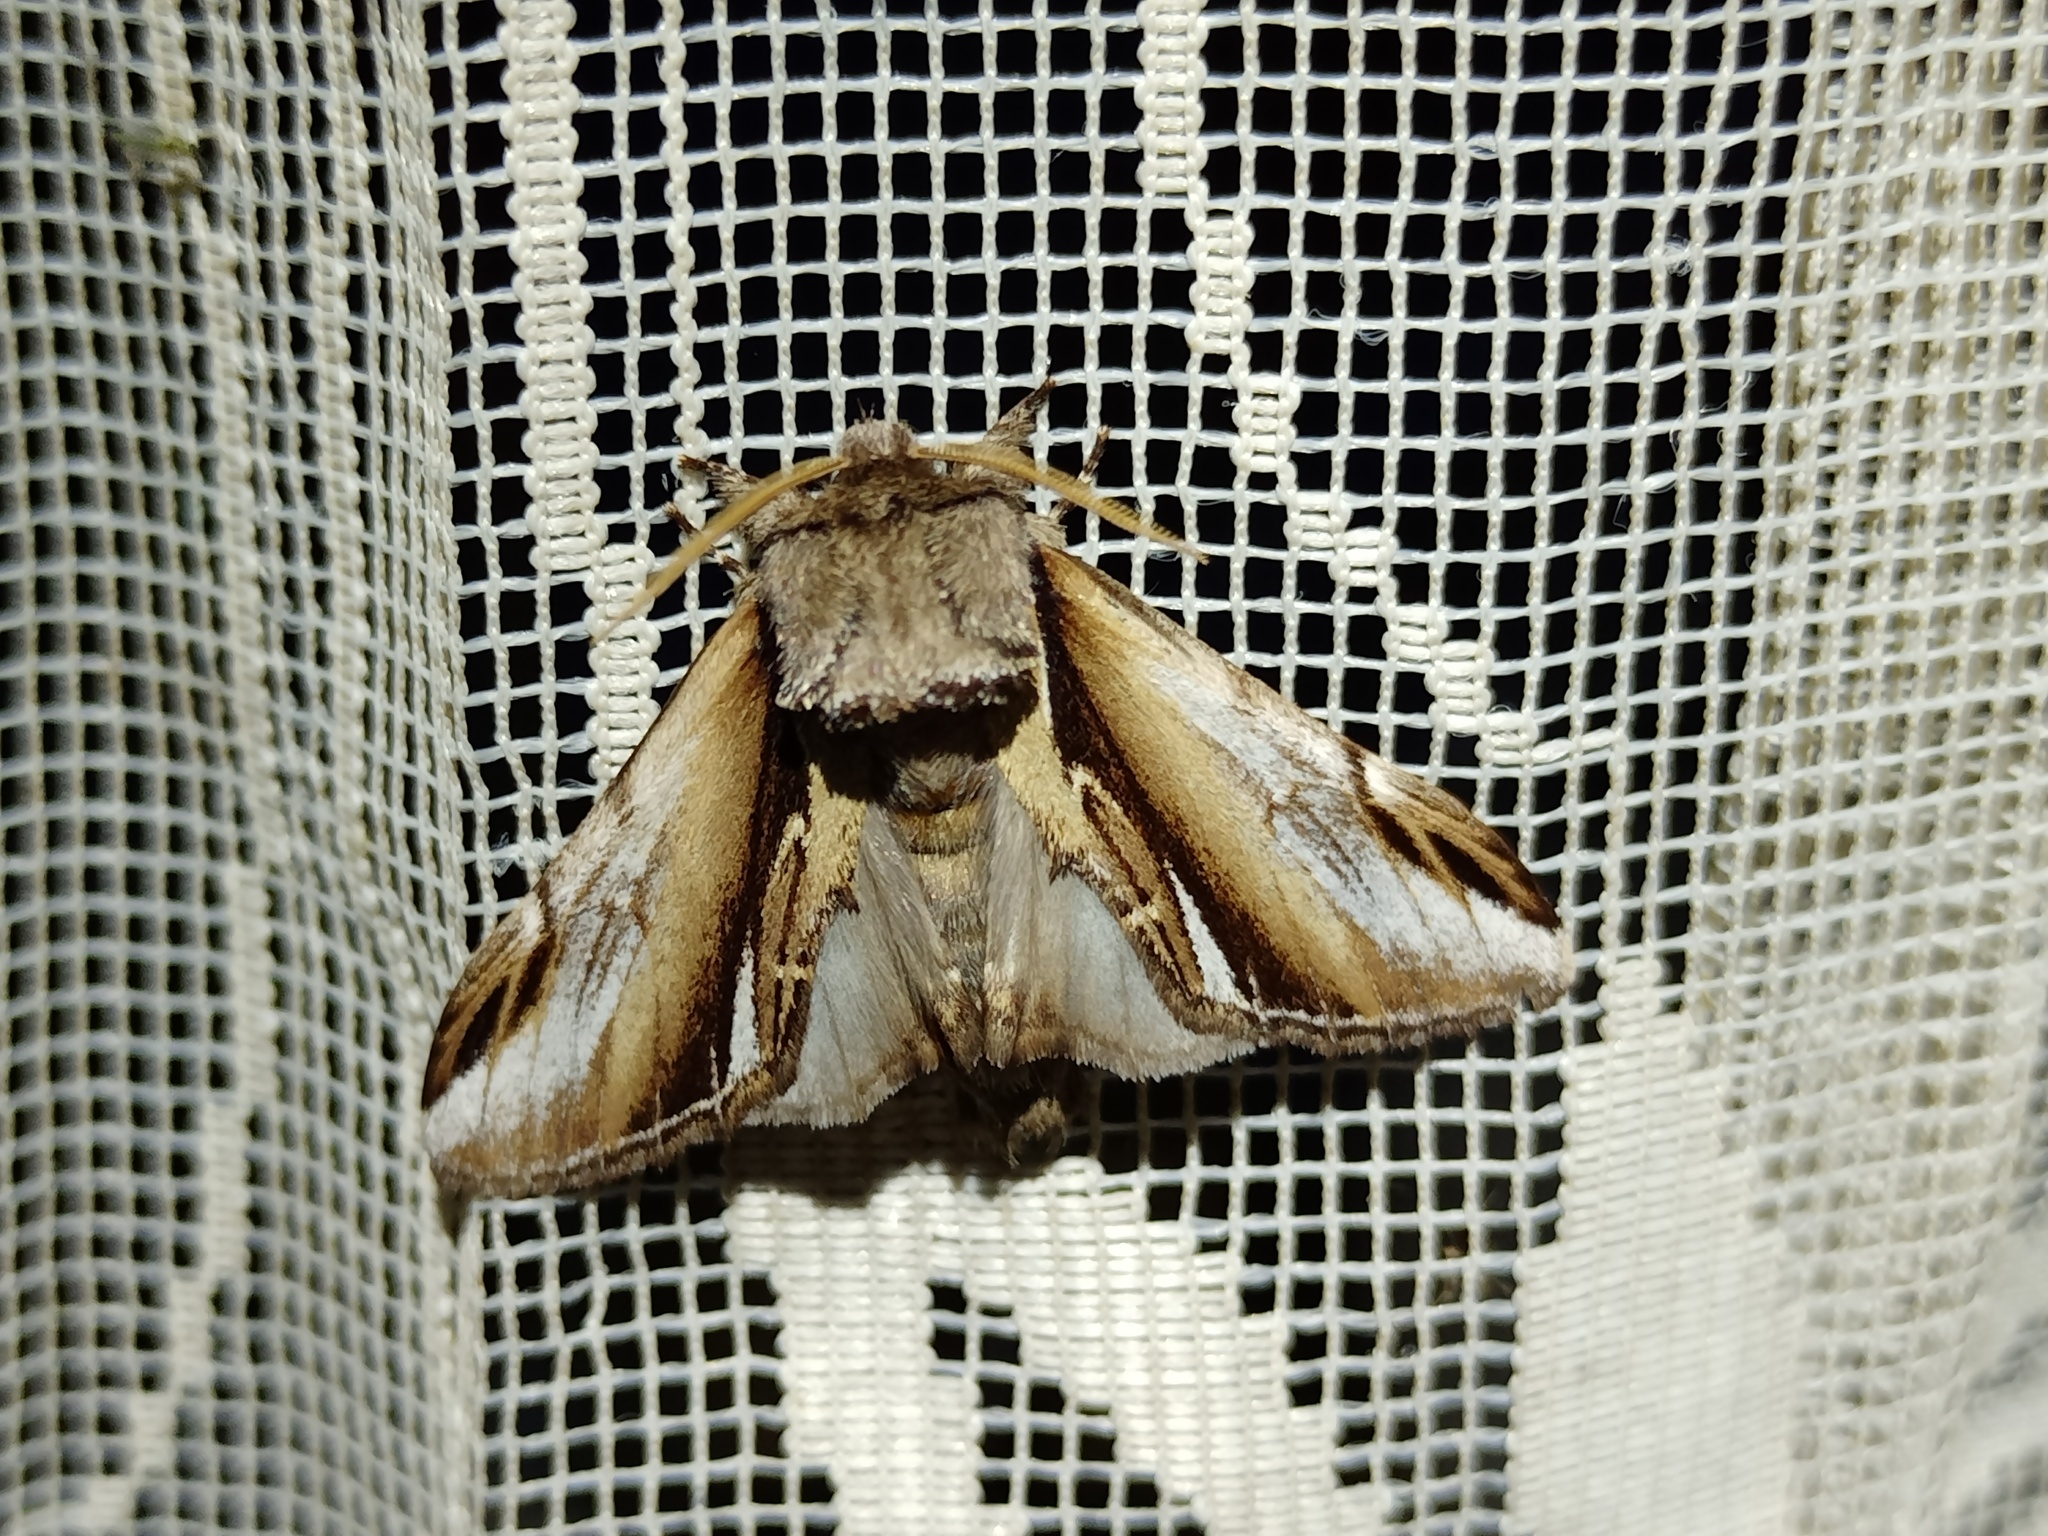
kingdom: Animalia
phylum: Arthropoda
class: Insecta
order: Lepidoptera
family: Notodontidae
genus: Pheosia
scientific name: Pheosia gnoma
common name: Lesser swallow prominent
